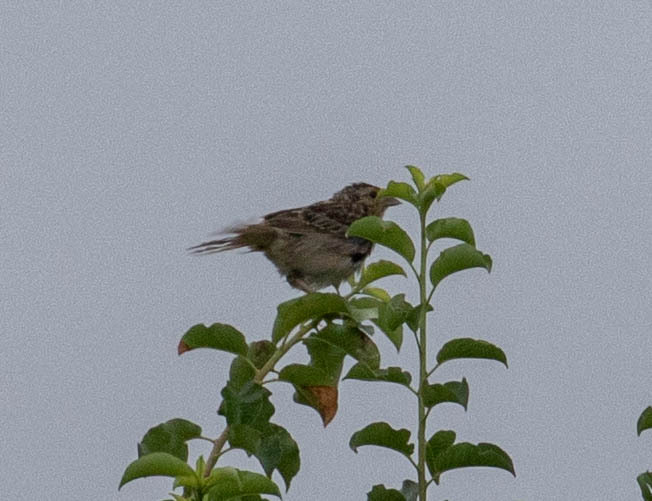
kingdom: Animalia
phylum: Chordata
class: Aves
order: Passeriformes
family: Passerellidae
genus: Ammodramus
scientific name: Ammodramus savannarum
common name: Grasshopper sparrow
